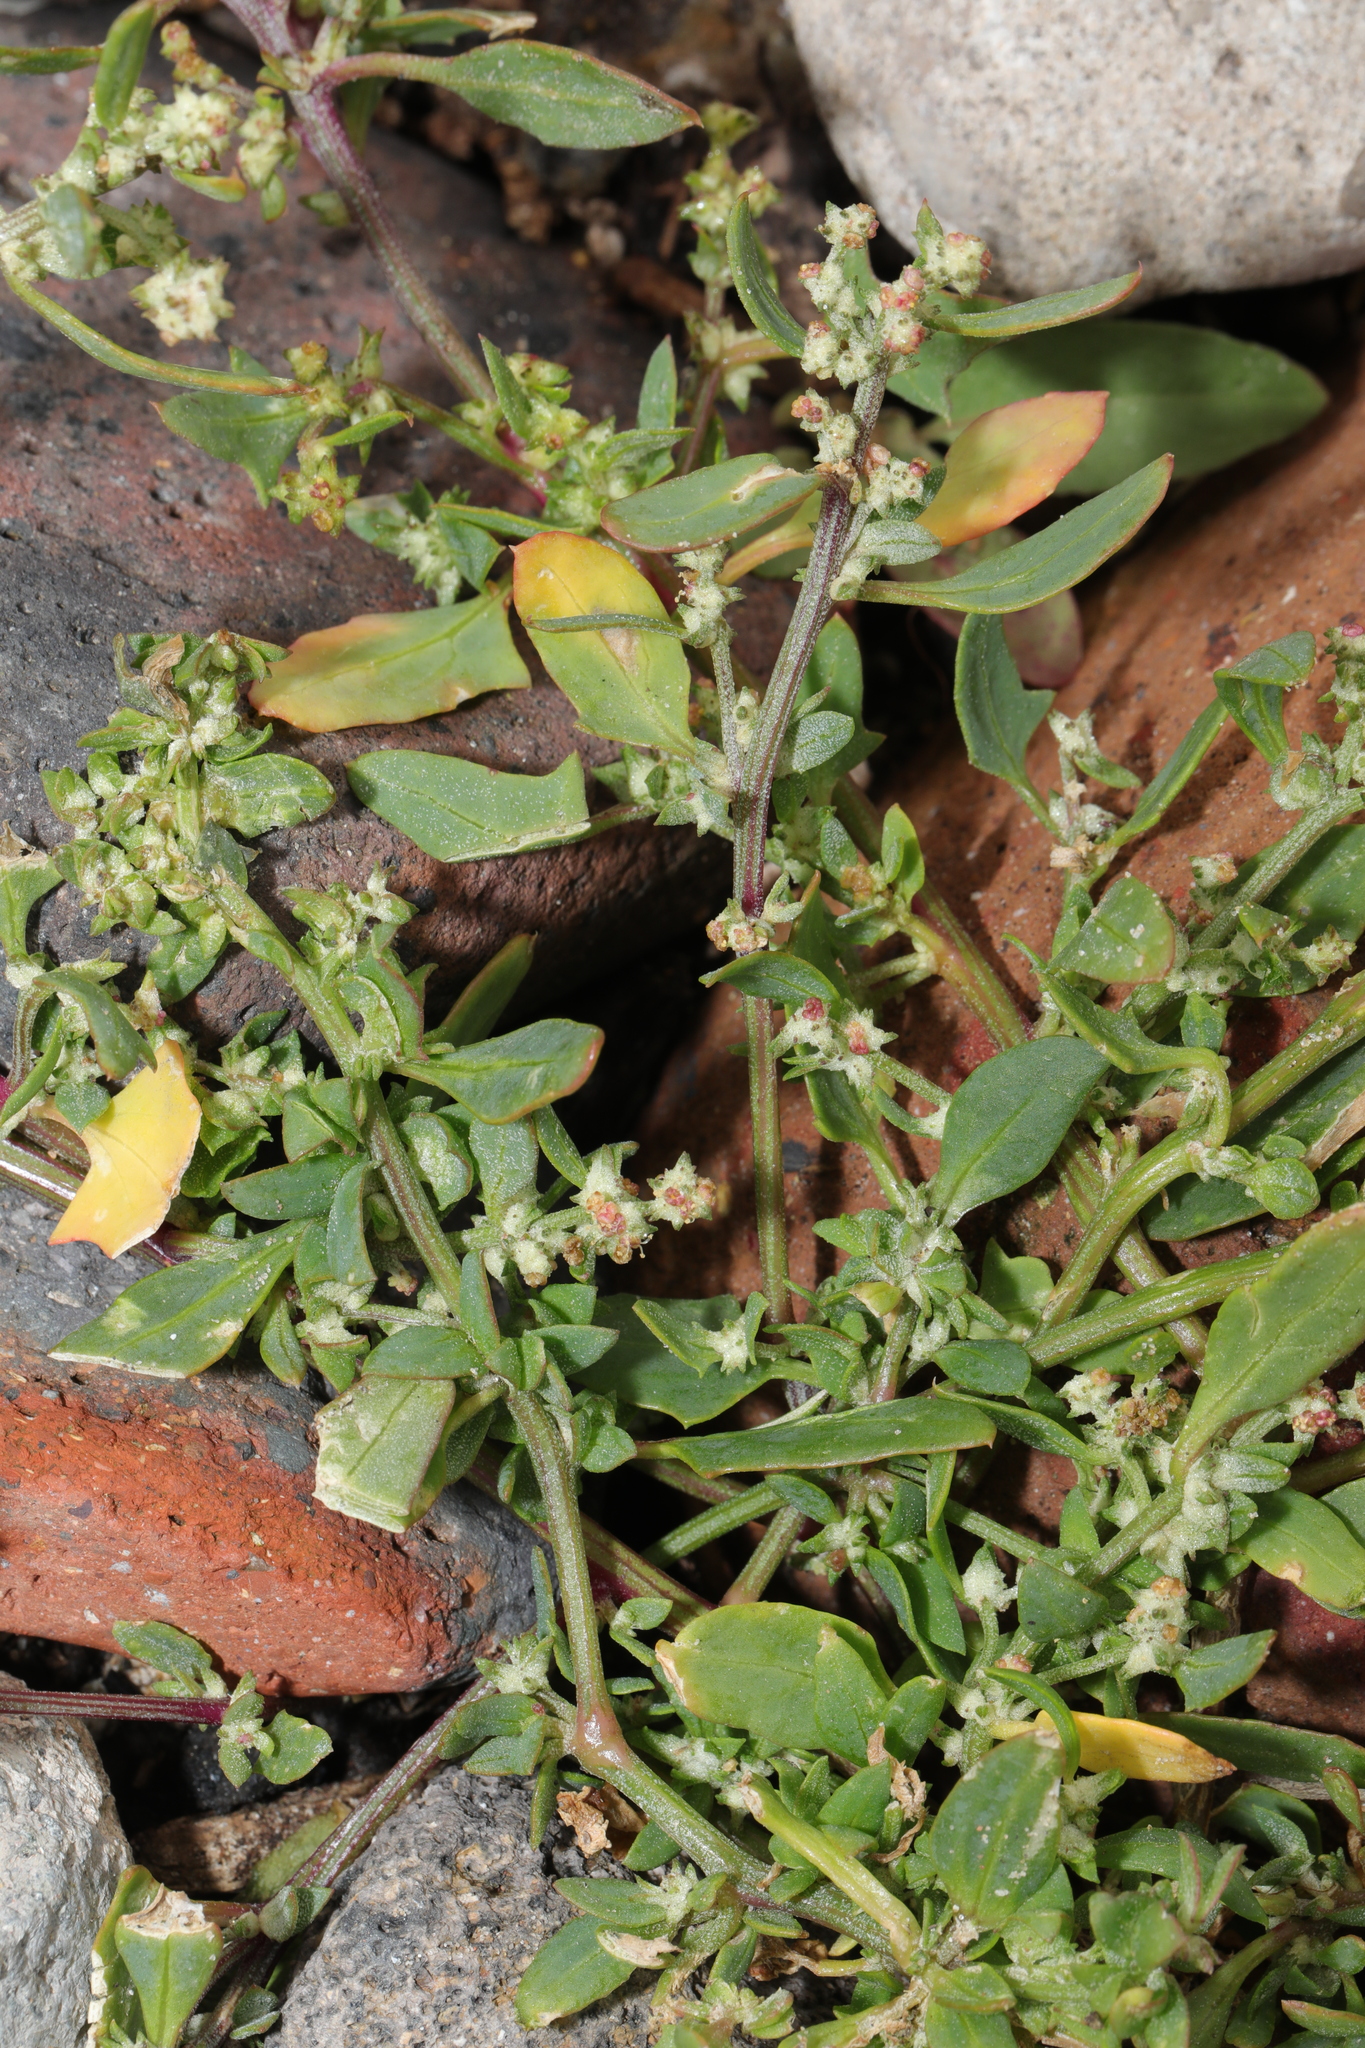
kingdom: Plantae
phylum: Tracheophyta
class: Magnoliopsida
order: Caryophyllales
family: Amaranthaceae
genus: Atriplex
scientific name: Atriplex prostrata
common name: Spear-leaved orache
